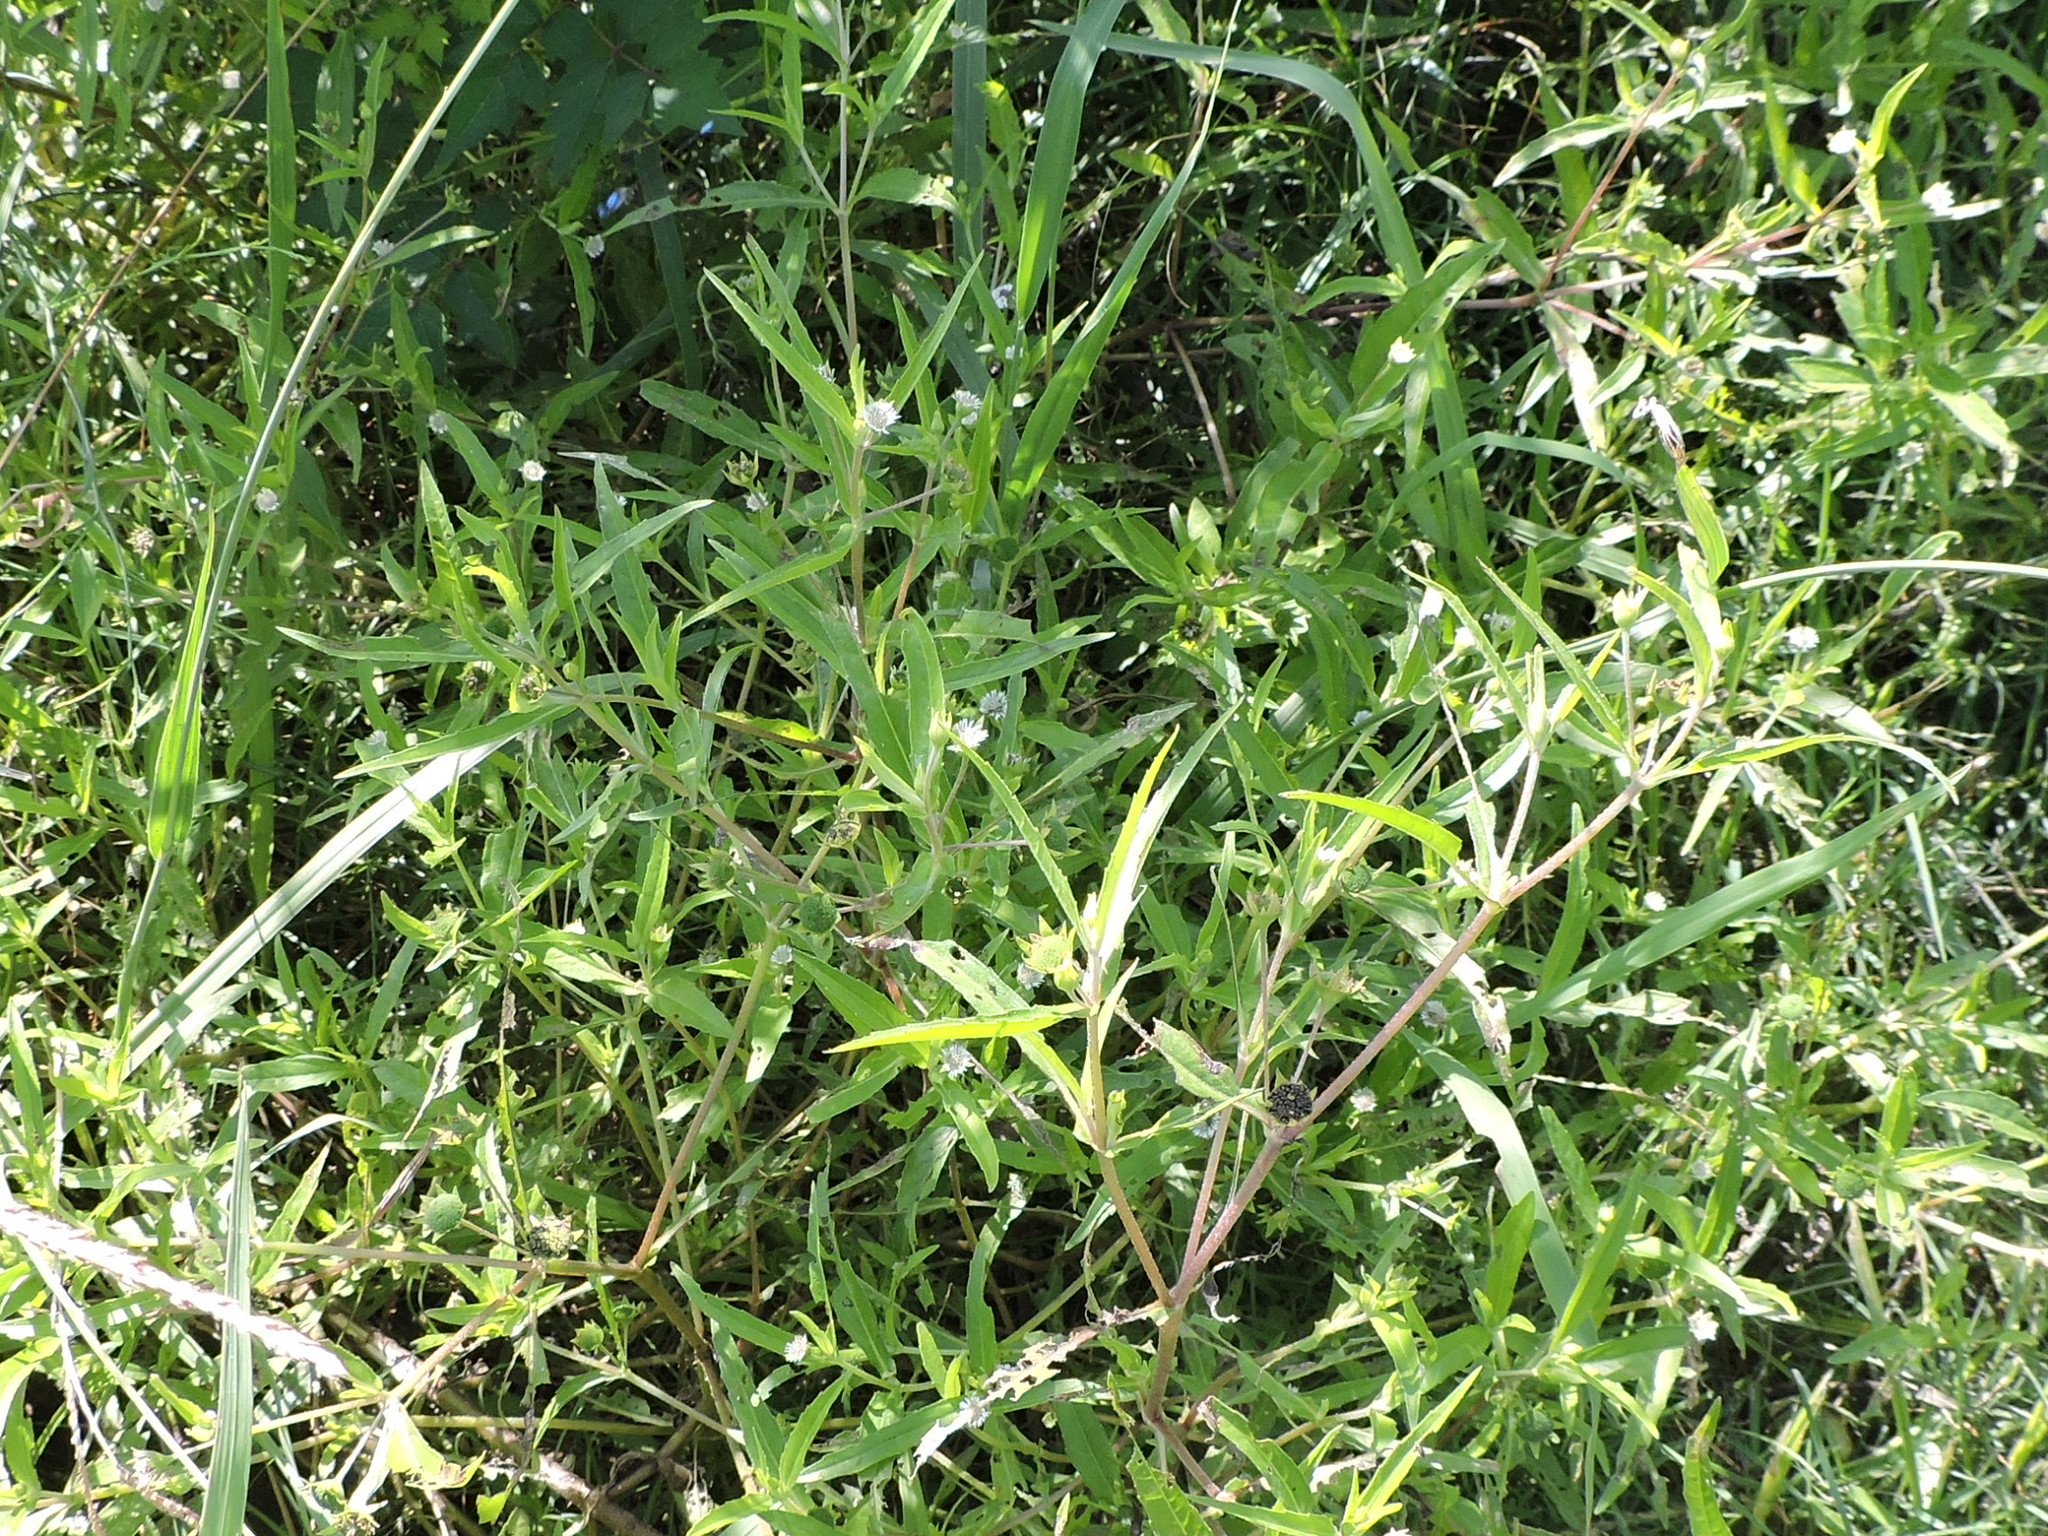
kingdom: Plantae
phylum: Tracheophyta
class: Magnoliopsida
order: Asterales
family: Asteraceae
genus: Eclipta
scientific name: Eclipta prostrata
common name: False daisy
